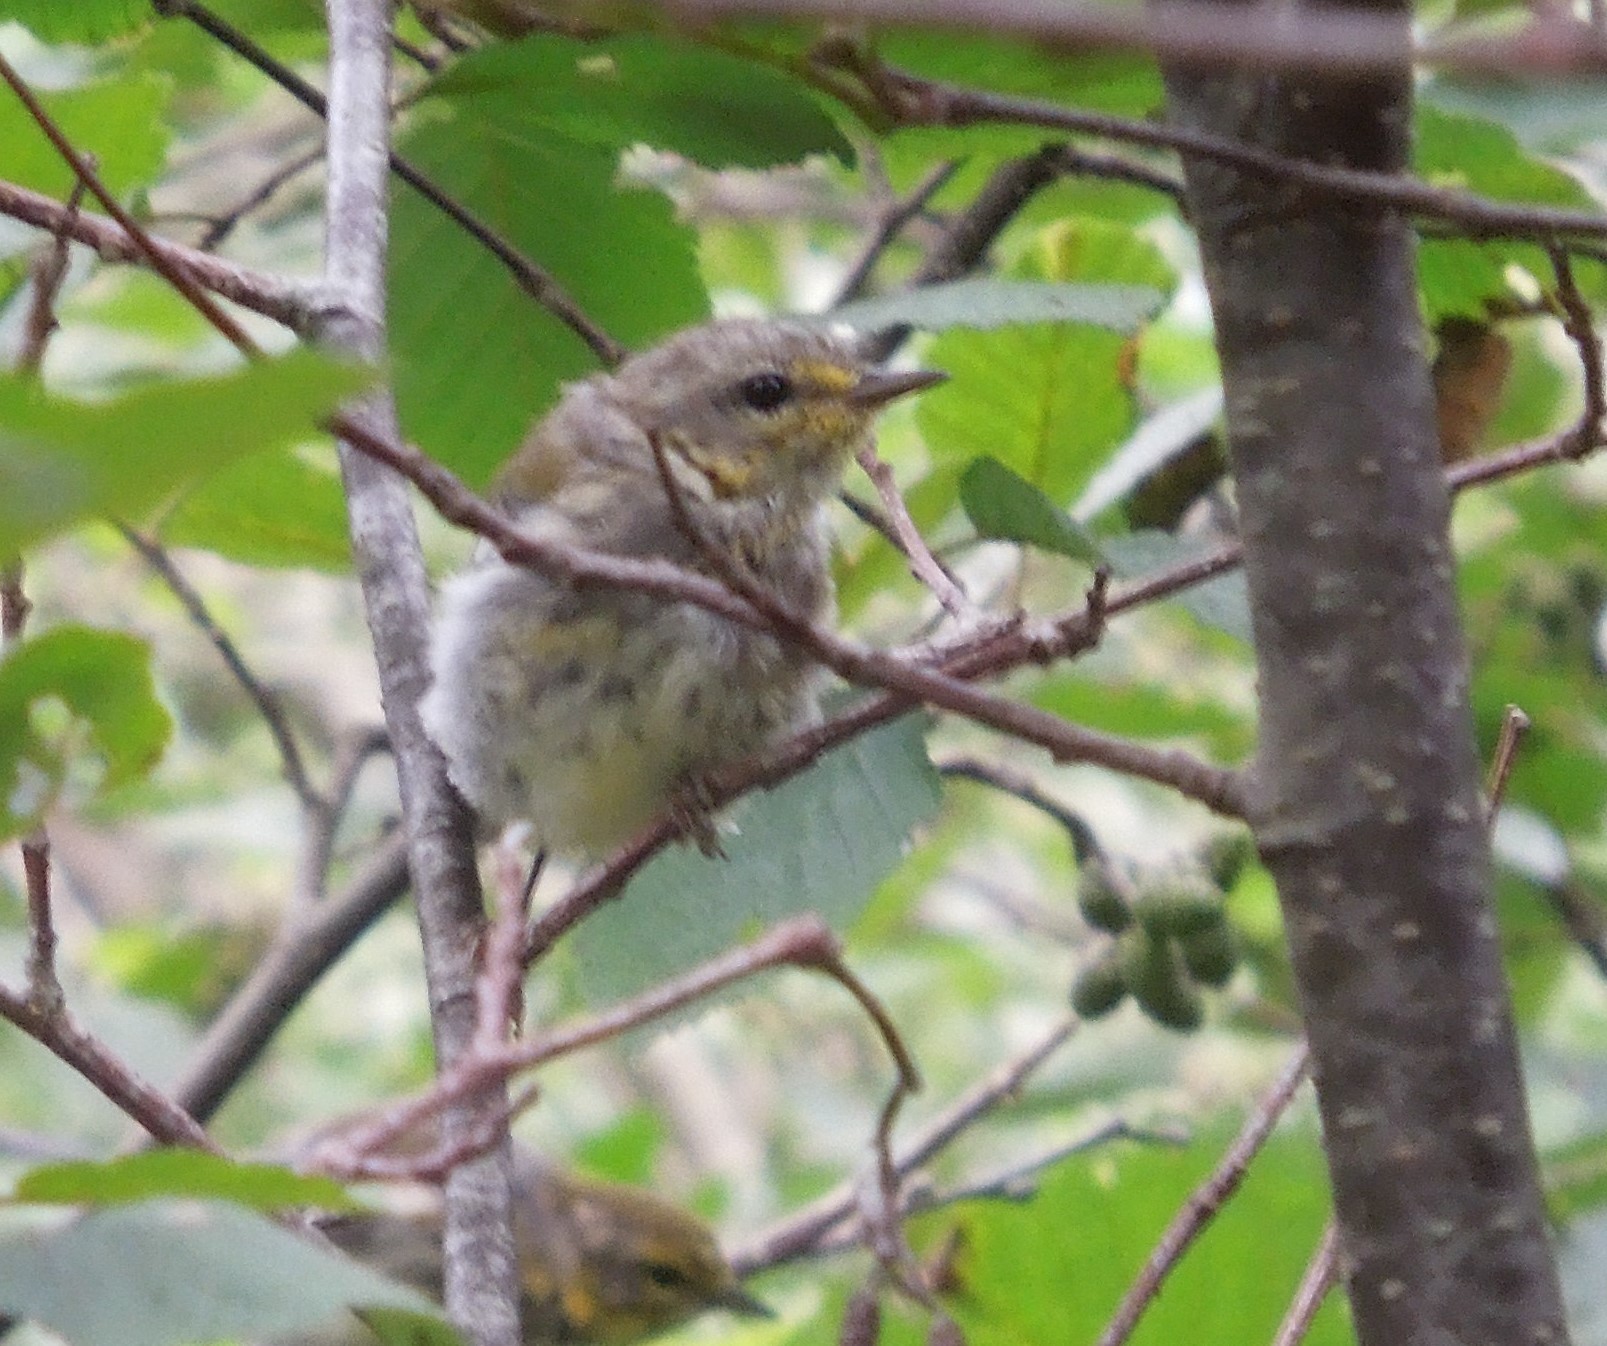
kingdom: Animalia
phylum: Chordata
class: Aves
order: Passeriformes
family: Parulidae
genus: Setophaga
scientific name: Setophaga
